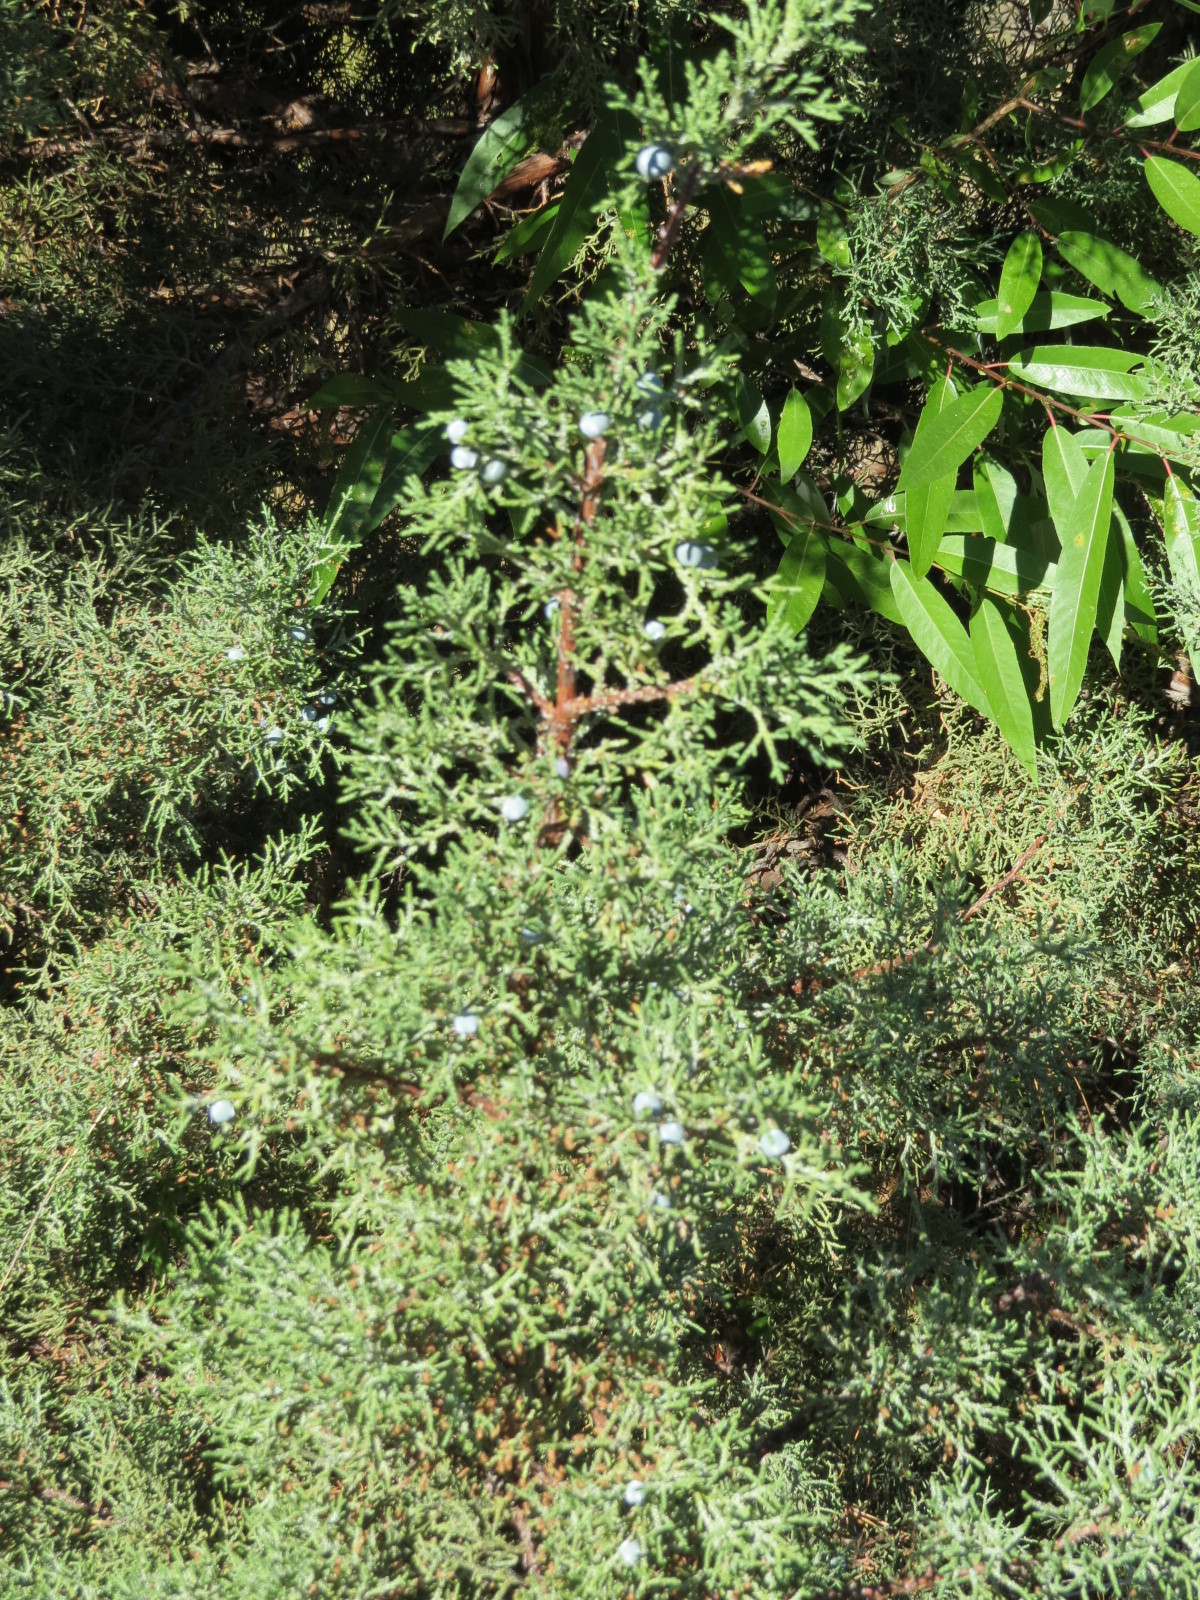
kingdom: Plantae
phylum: Tracheophyta
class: Pinopsida
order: Pinales
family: Cupressaceae
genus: Juniperus
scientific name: Juniperus occidentalis
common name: Western juniper
